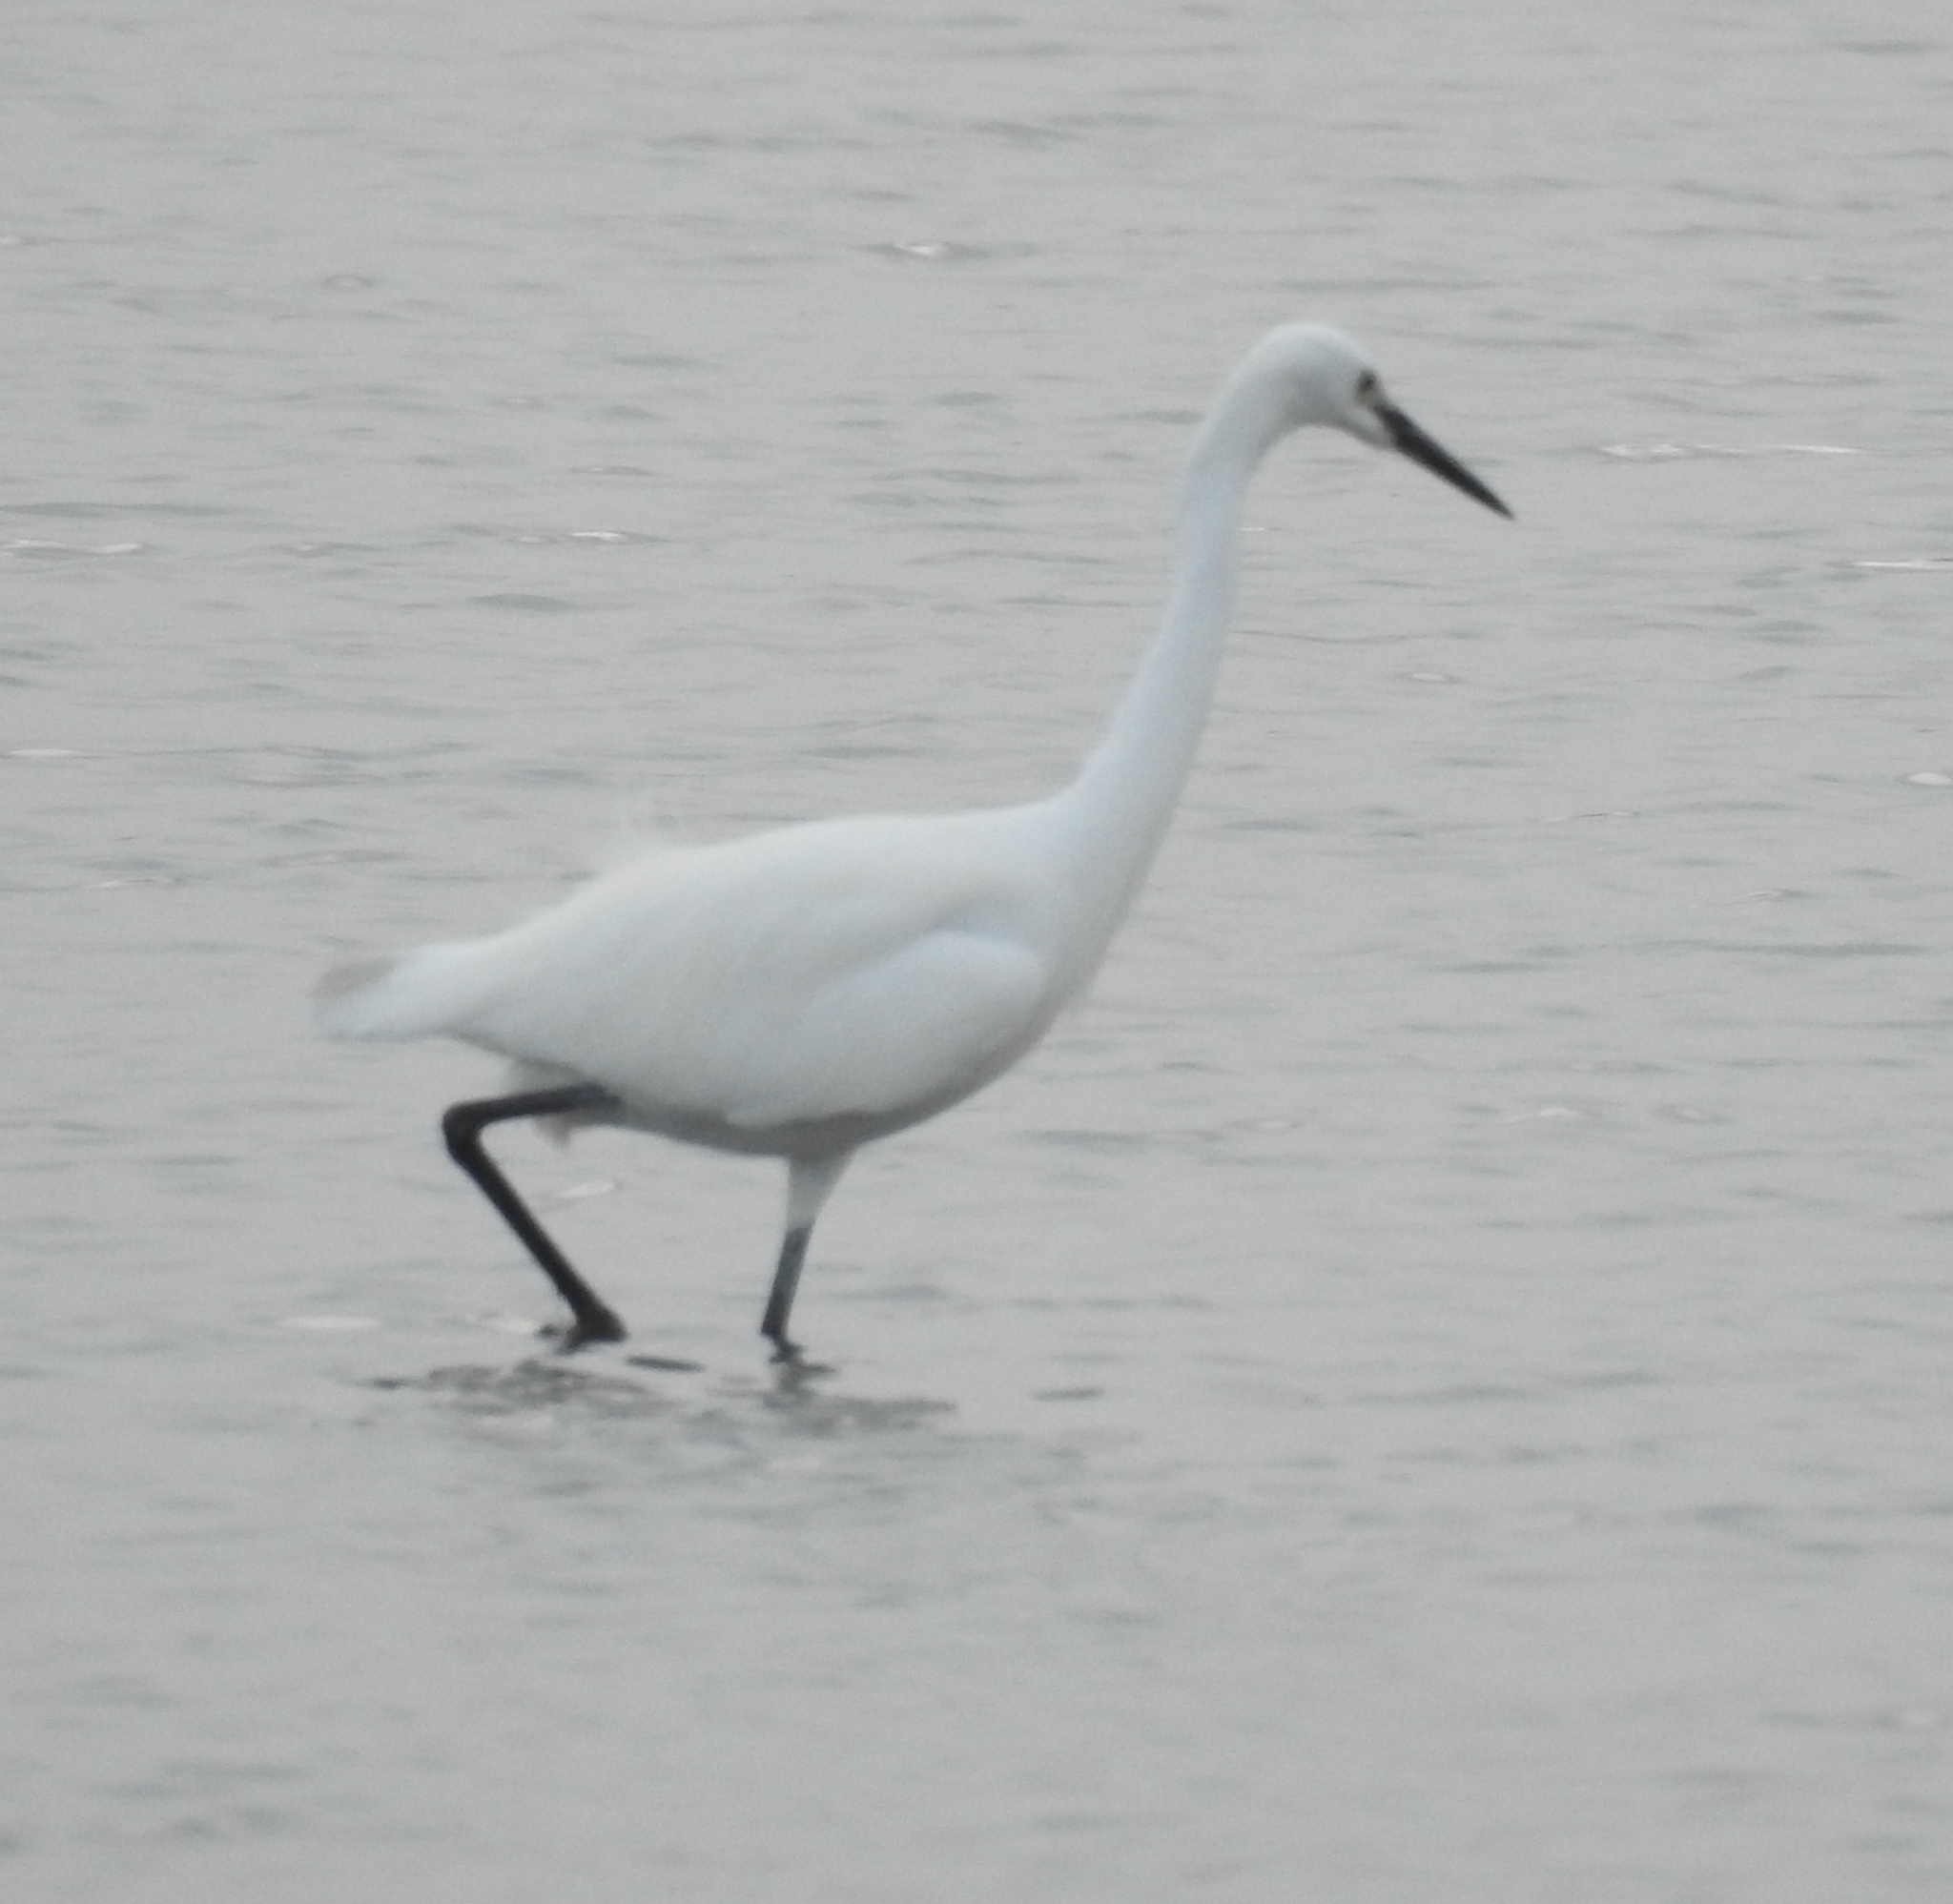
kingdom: Animalia
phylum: Chordata
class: Aves
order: Pelecaniformes
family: Ardeidae
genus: Egretta
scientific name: Egretta garzetta
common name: Little egret
